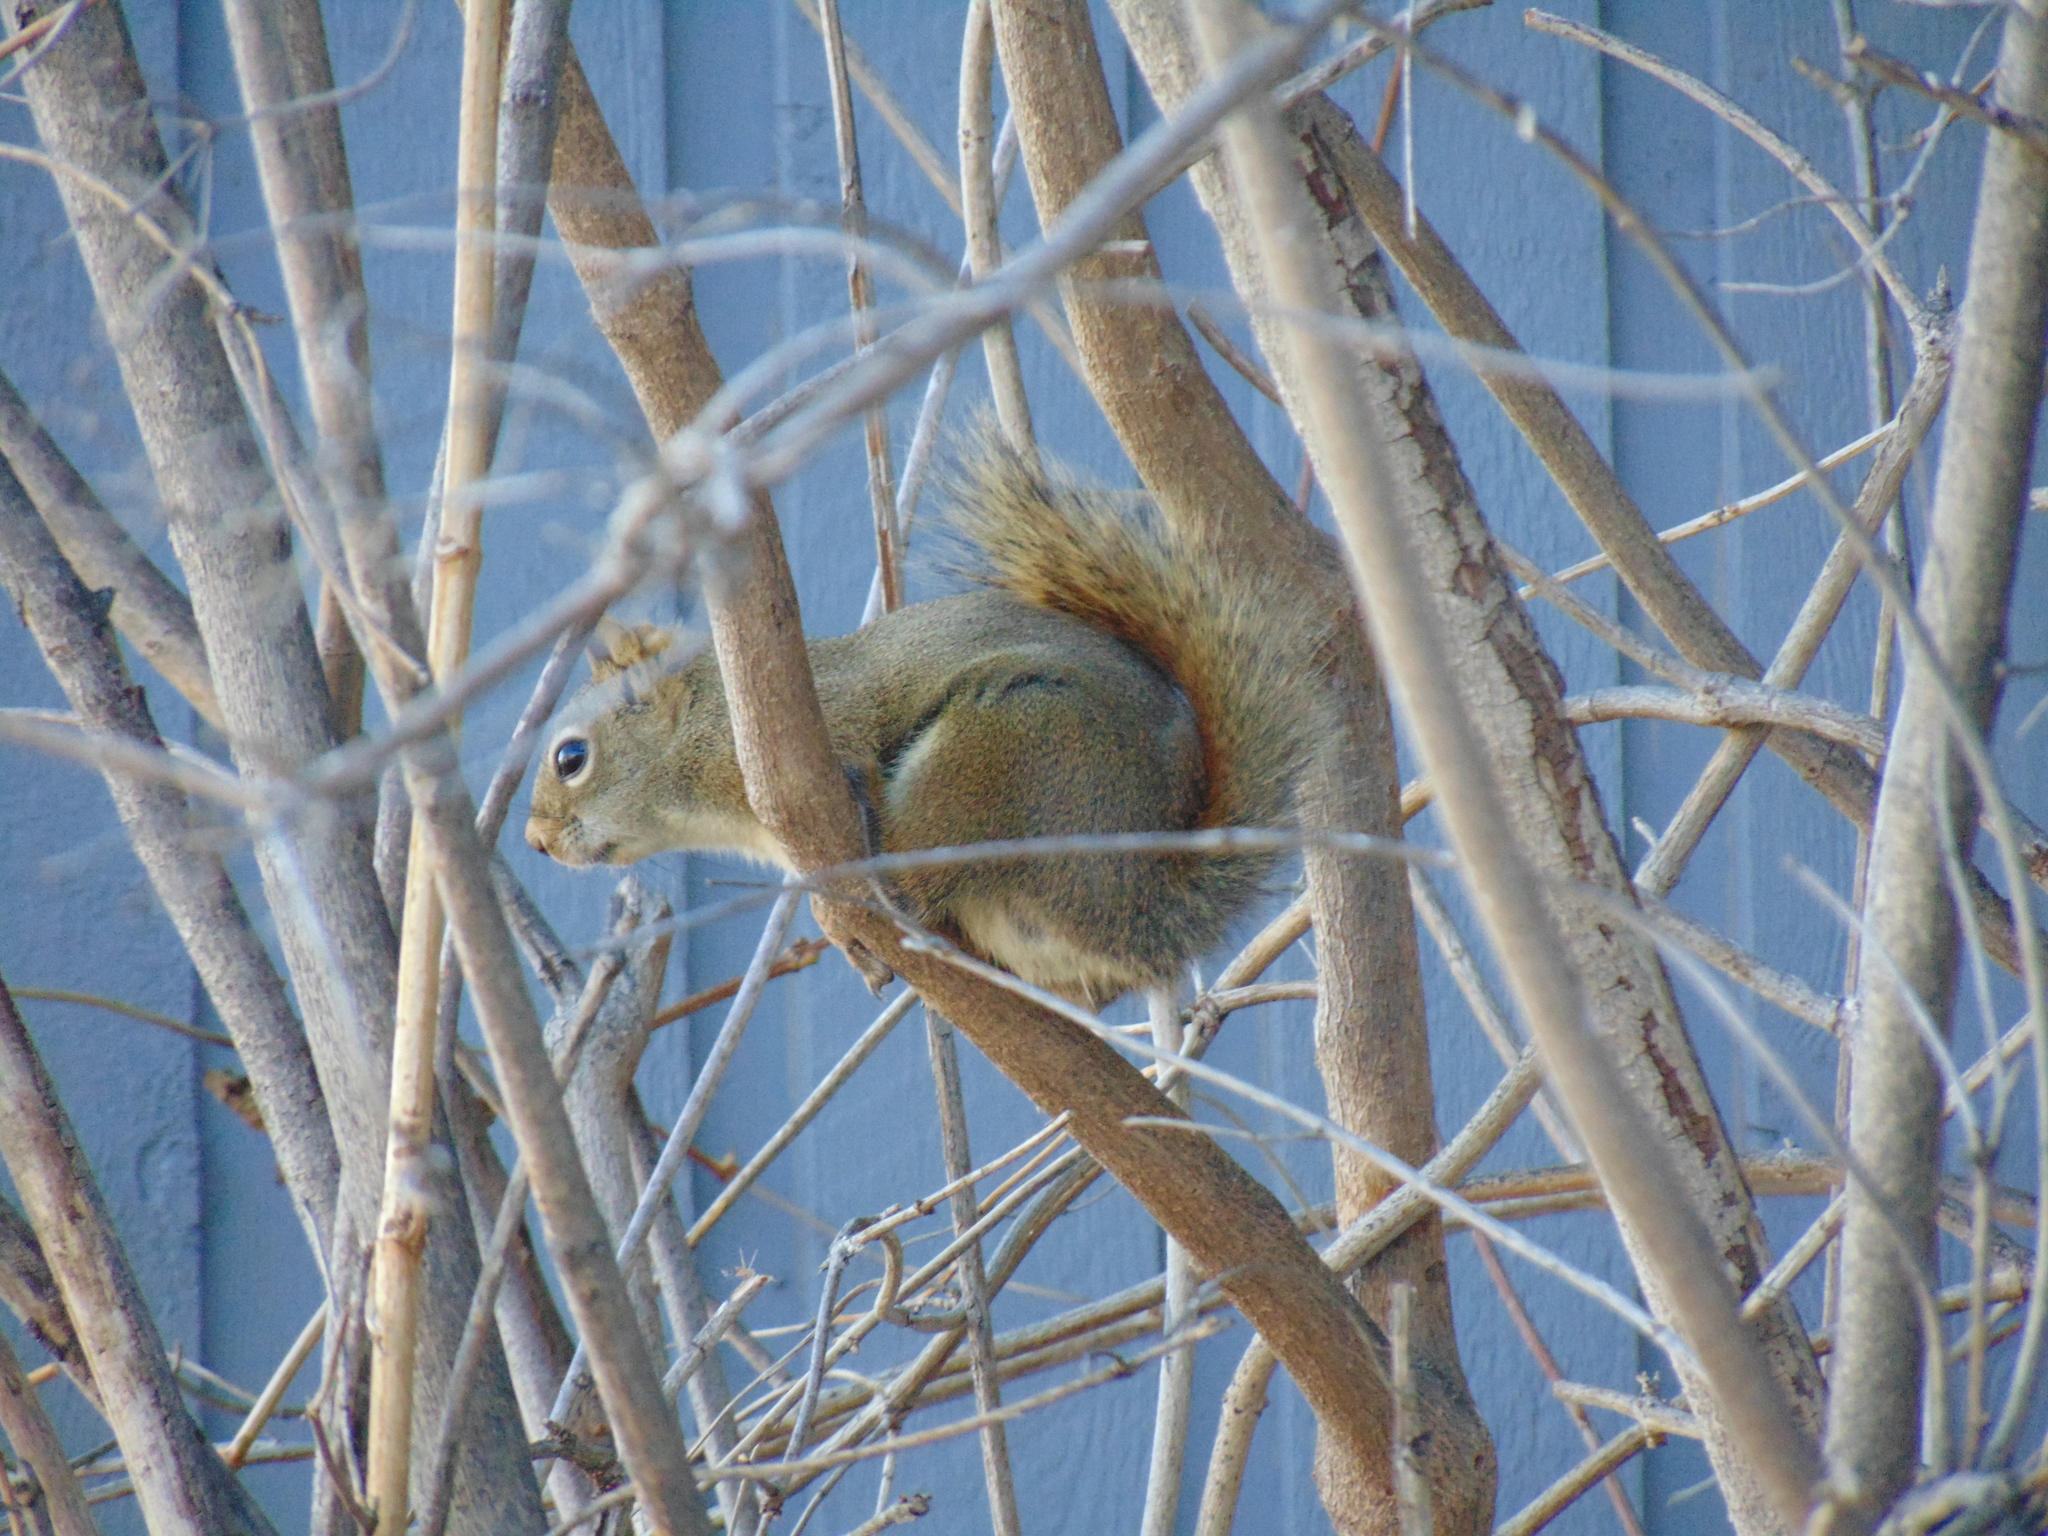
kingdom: Animalia
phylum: Chordata
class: Mammalia
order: Rodentia
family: Sciuridae
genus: Tamiasciurus
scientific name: Tamiasciurus hudsonicus
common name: Red squirrel
